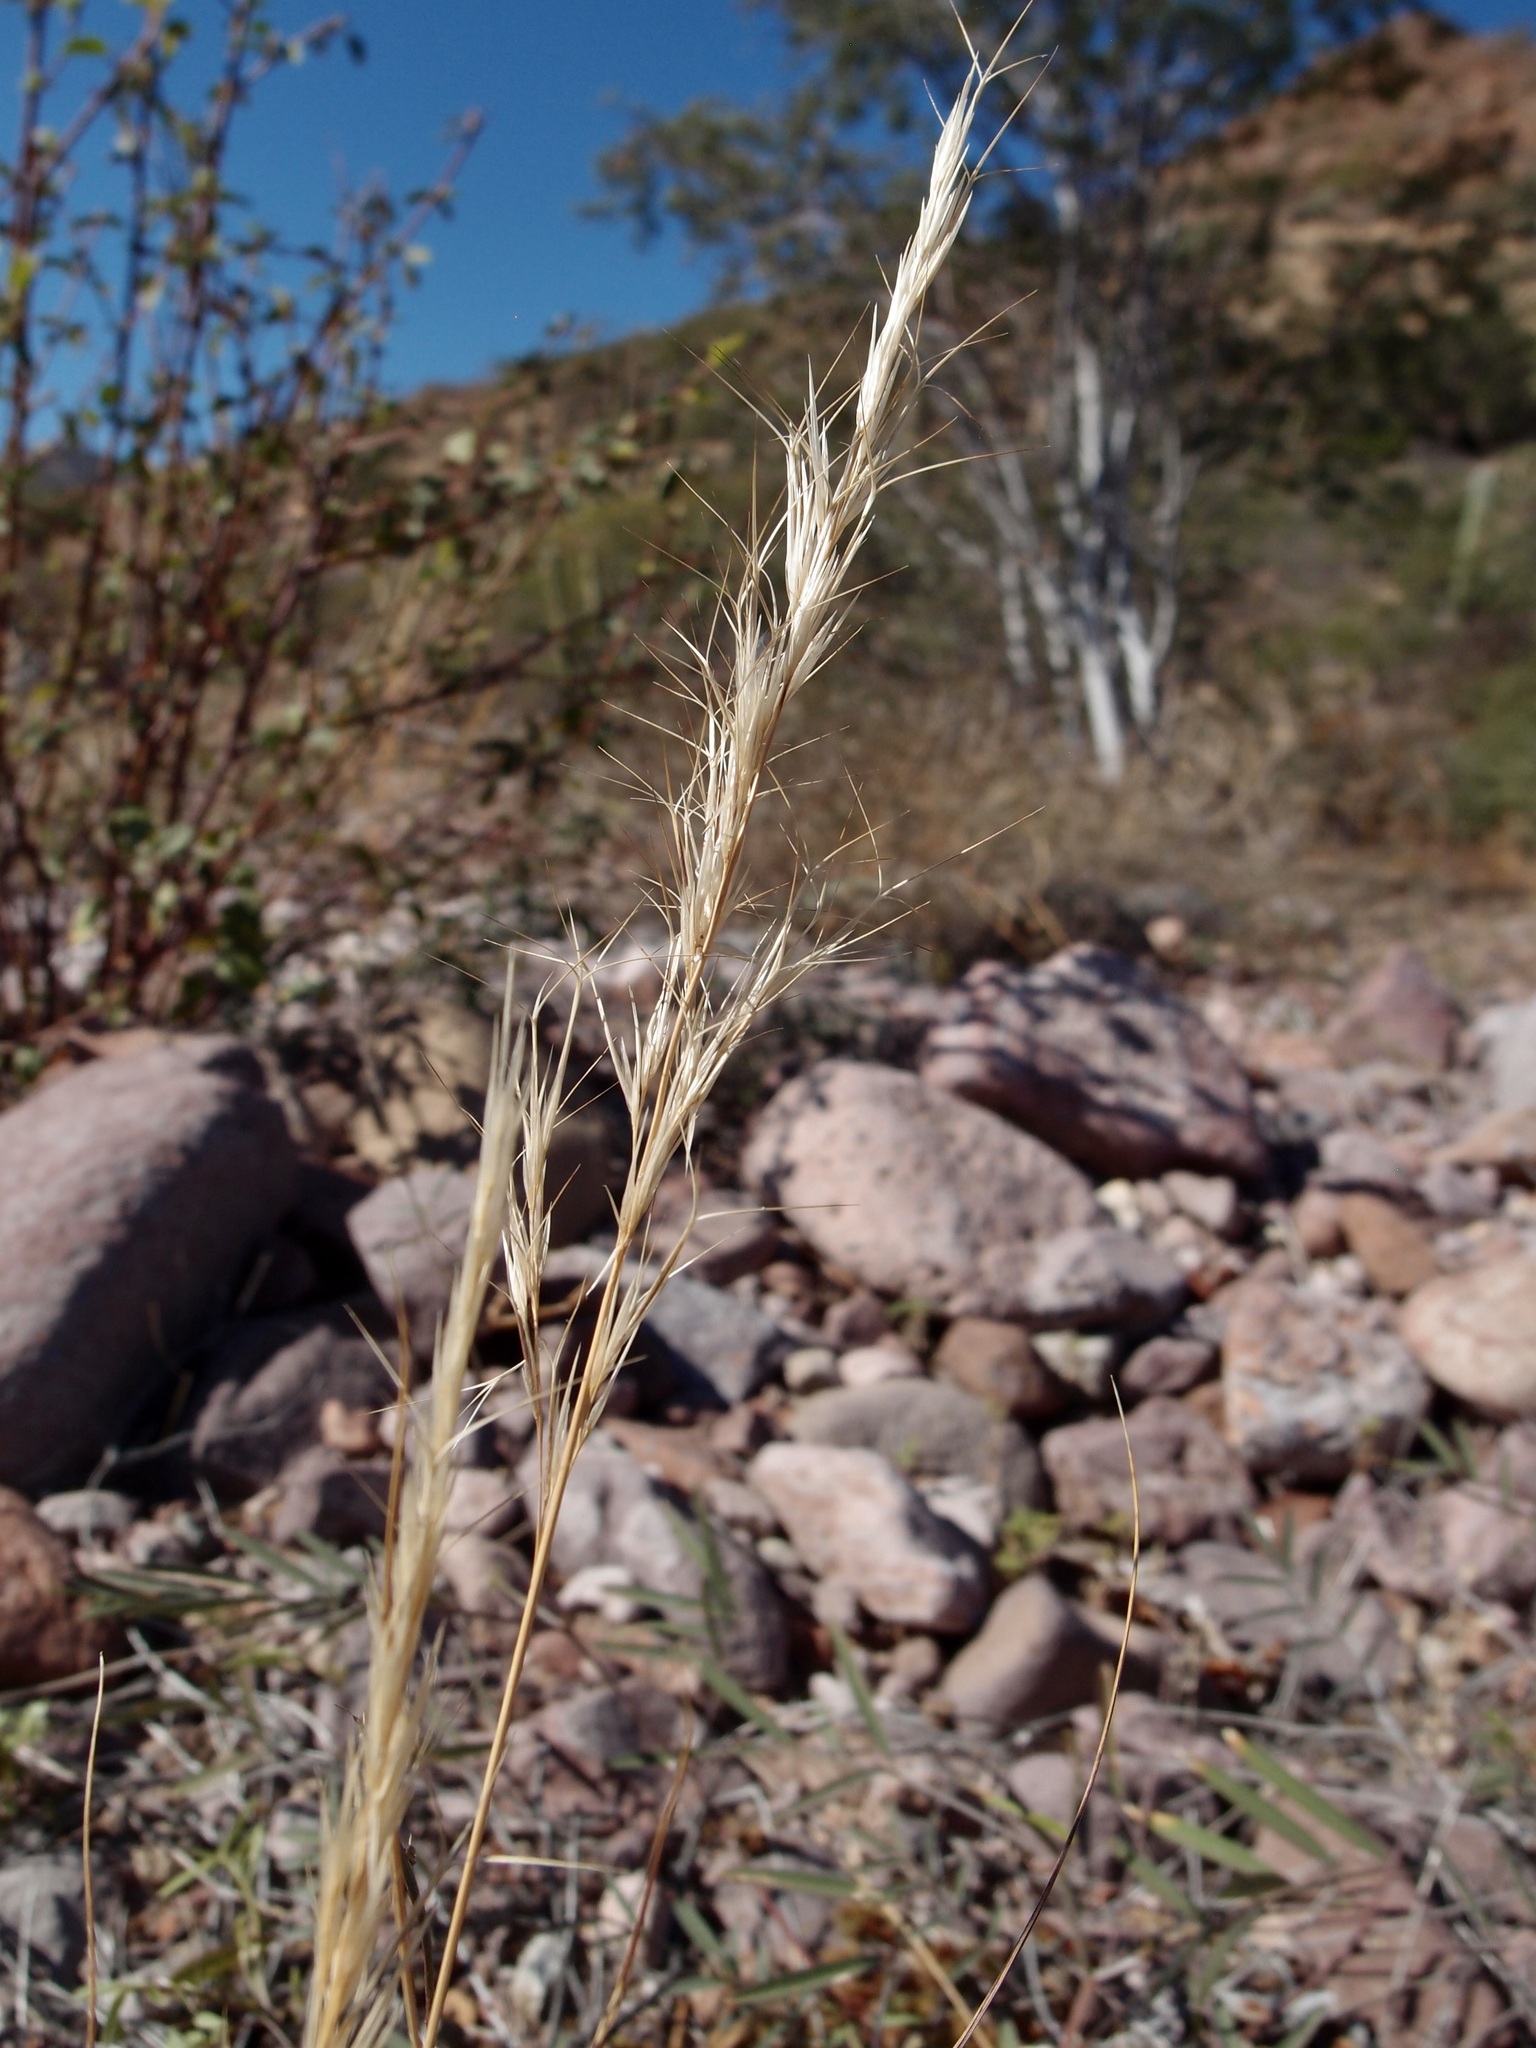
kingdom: Plantae
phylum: Tracheophyta
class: Liliopsida
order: Poales
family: Poaceae
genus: Aristida
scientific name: Aristida adscensionis
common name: Sixweeks threeawn
